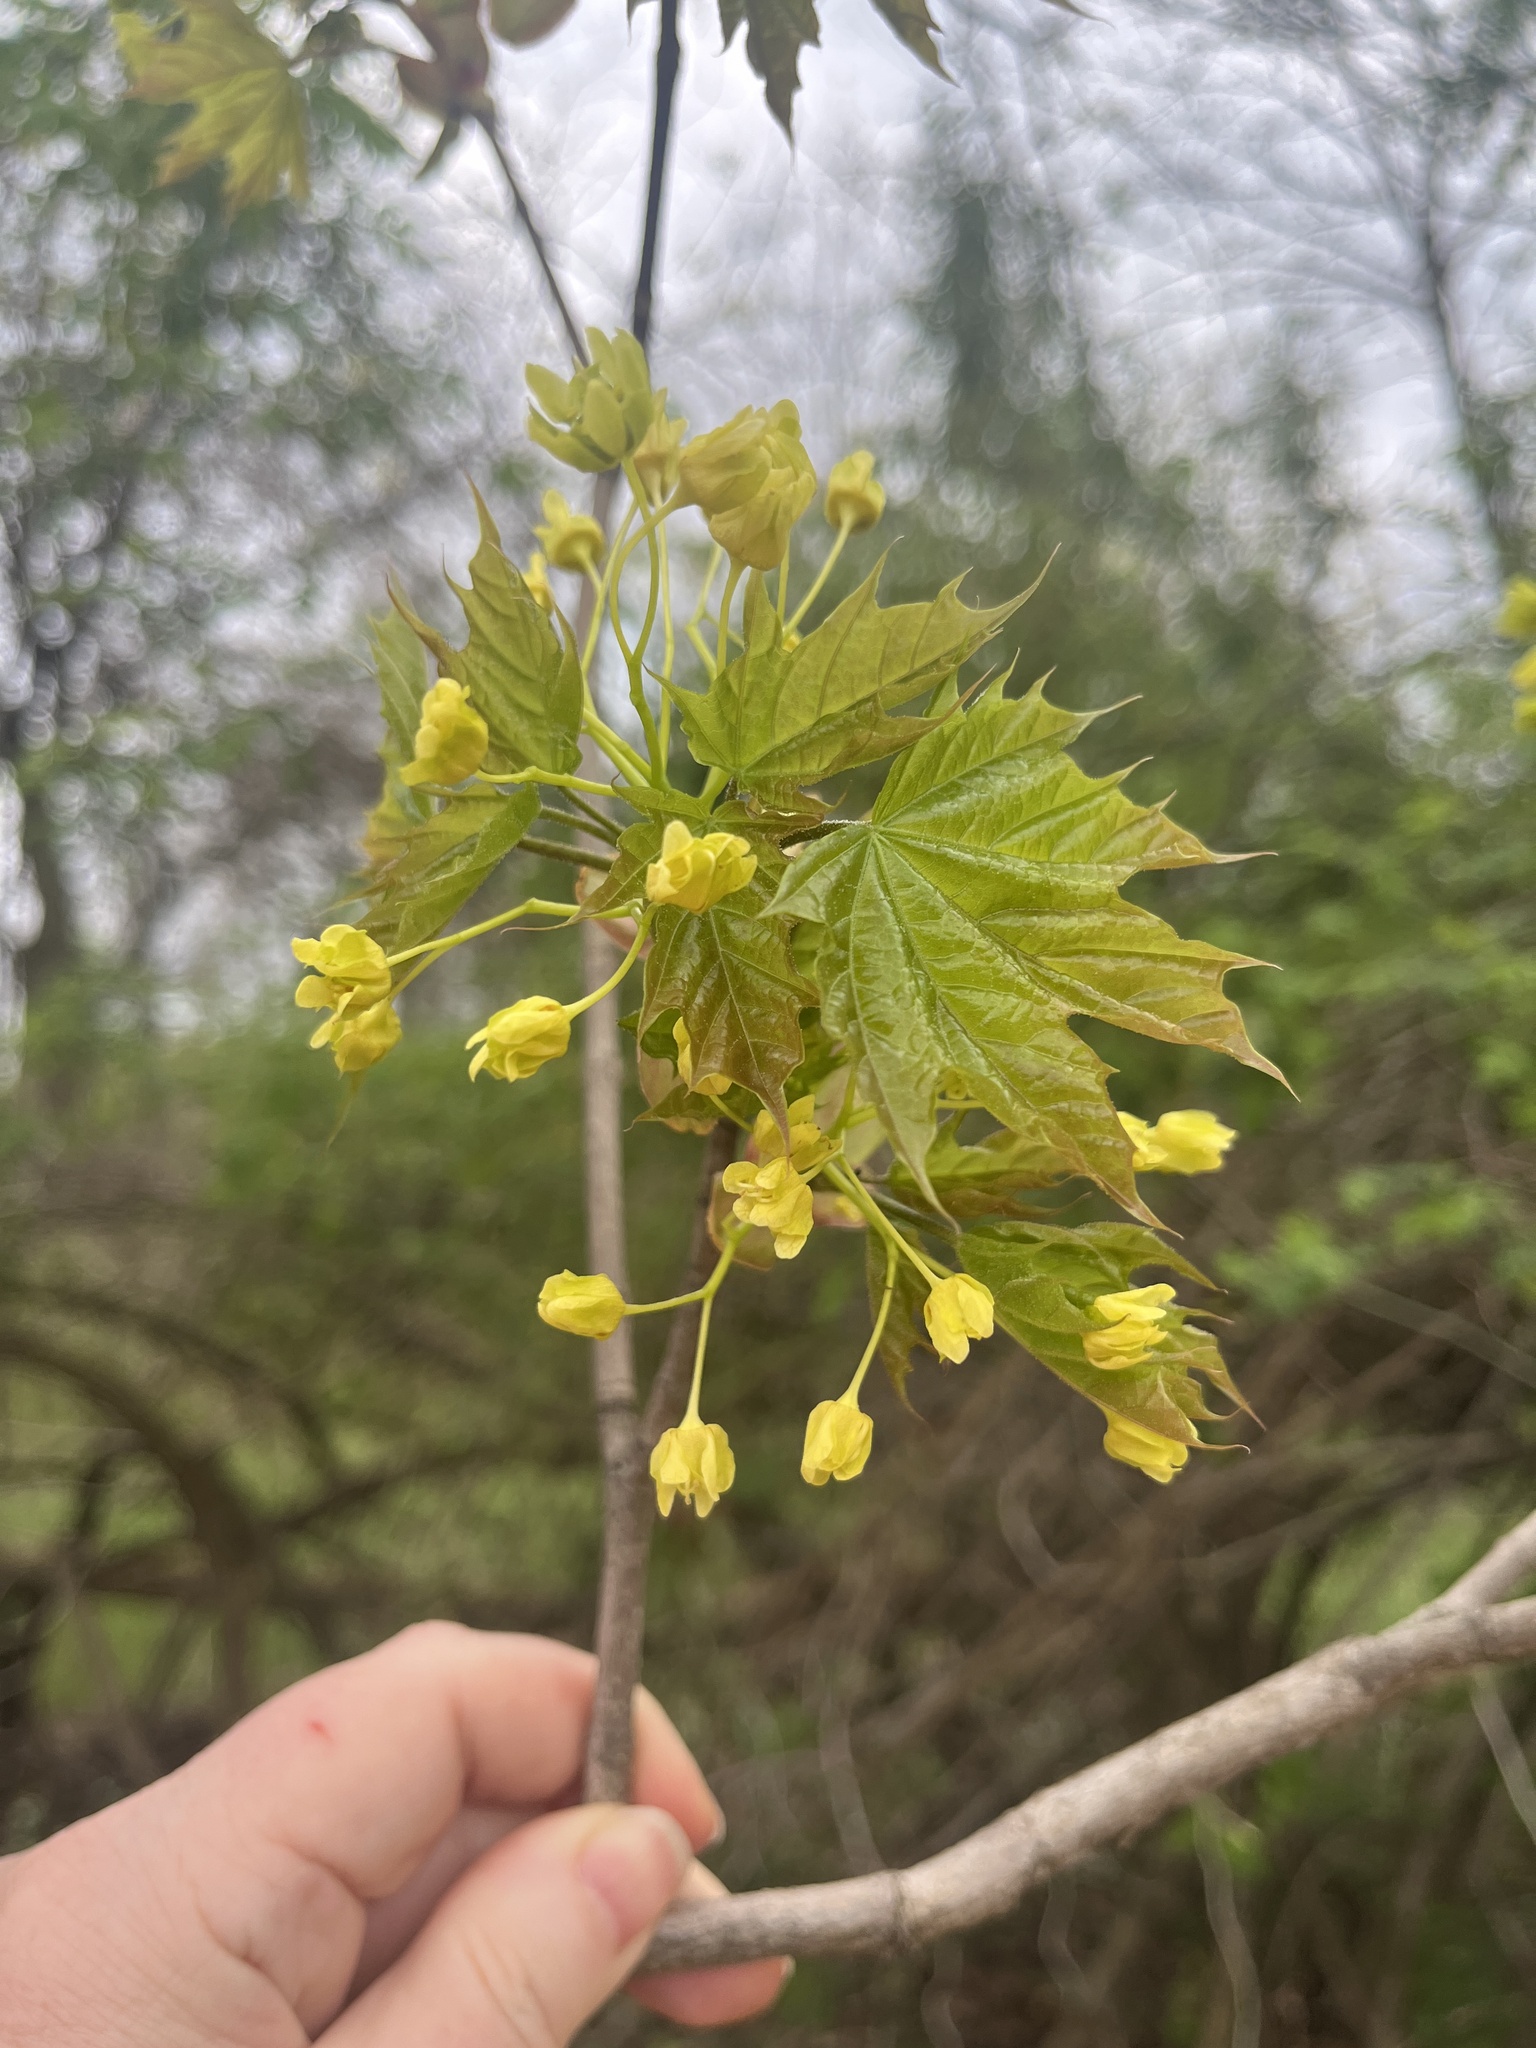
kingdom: Plantae
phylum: Tracheophyta
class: Magnoliopsida
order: Sapindales
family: Sapindaceae
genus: Acer
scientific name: Acer platanoides
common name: Norway maple
